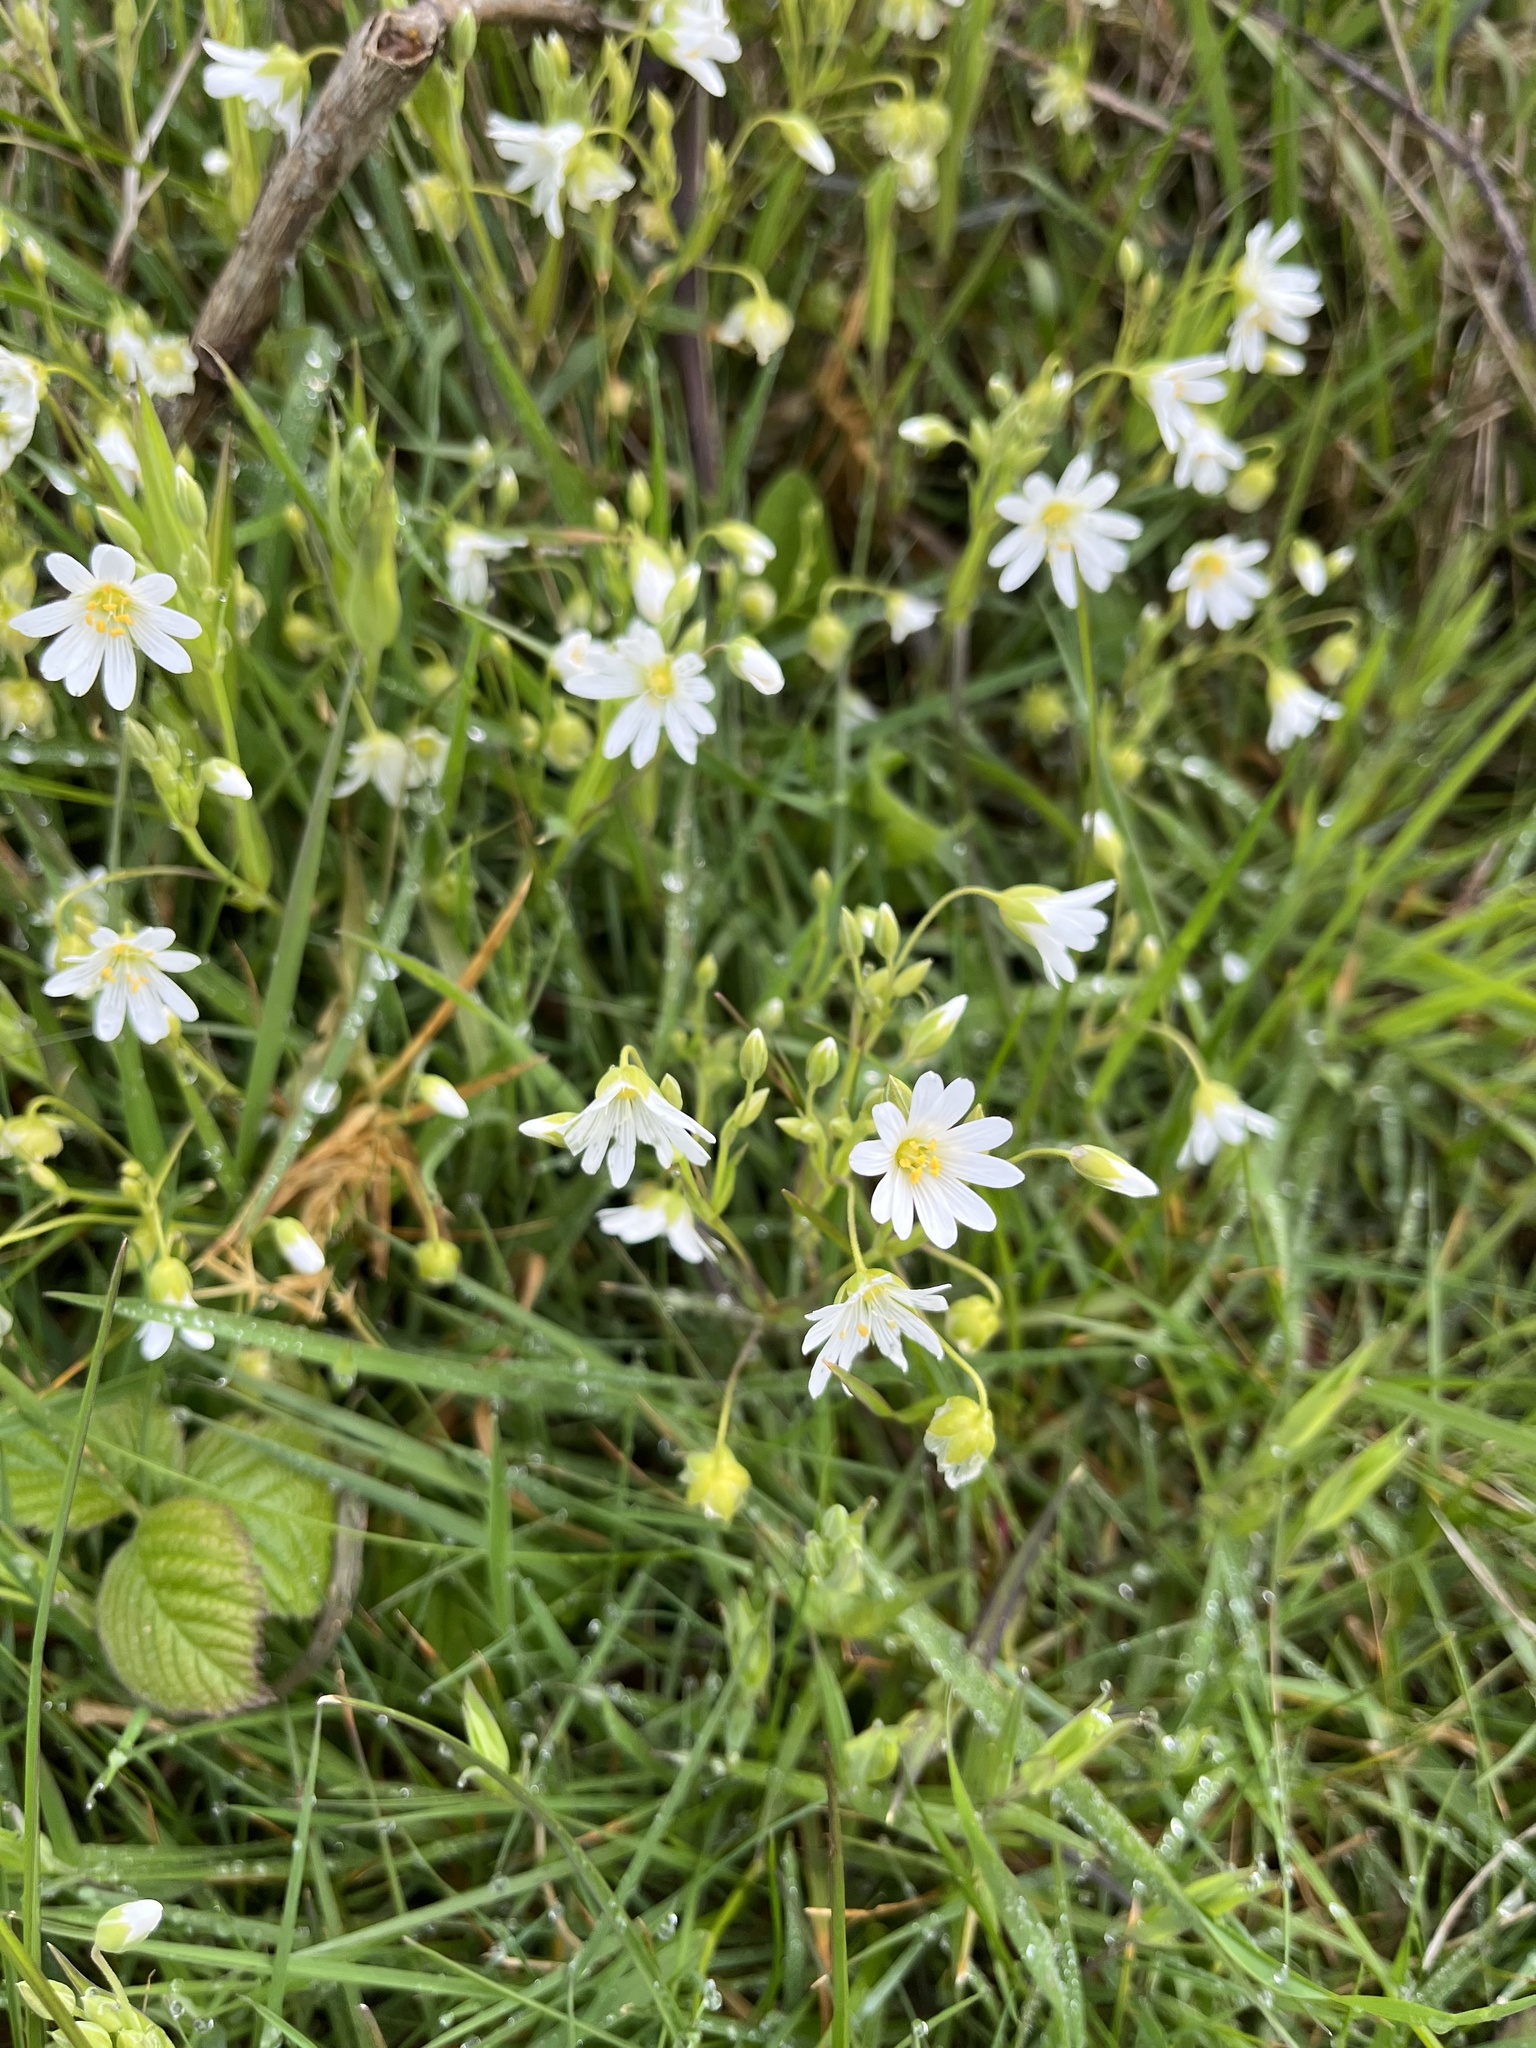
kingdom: Plantae
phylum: Tracheophyta
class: Magnoliopsida
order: Caryophyllales
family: Caryophyllaceae
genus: Rabelera
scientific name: Rabelera holostea
